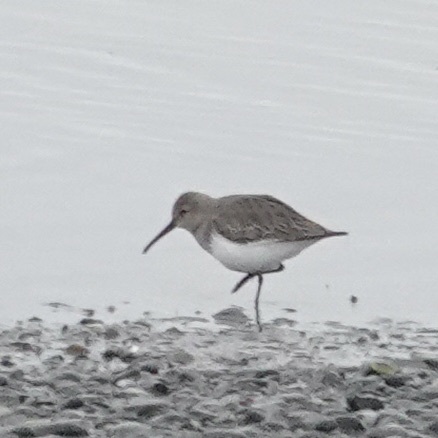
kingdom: Animalia
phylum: Chordata
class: Aves
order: Charadriiformes
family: Scolopacidae
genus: Calidris
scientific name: Calidris alpina
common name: Dunlin
